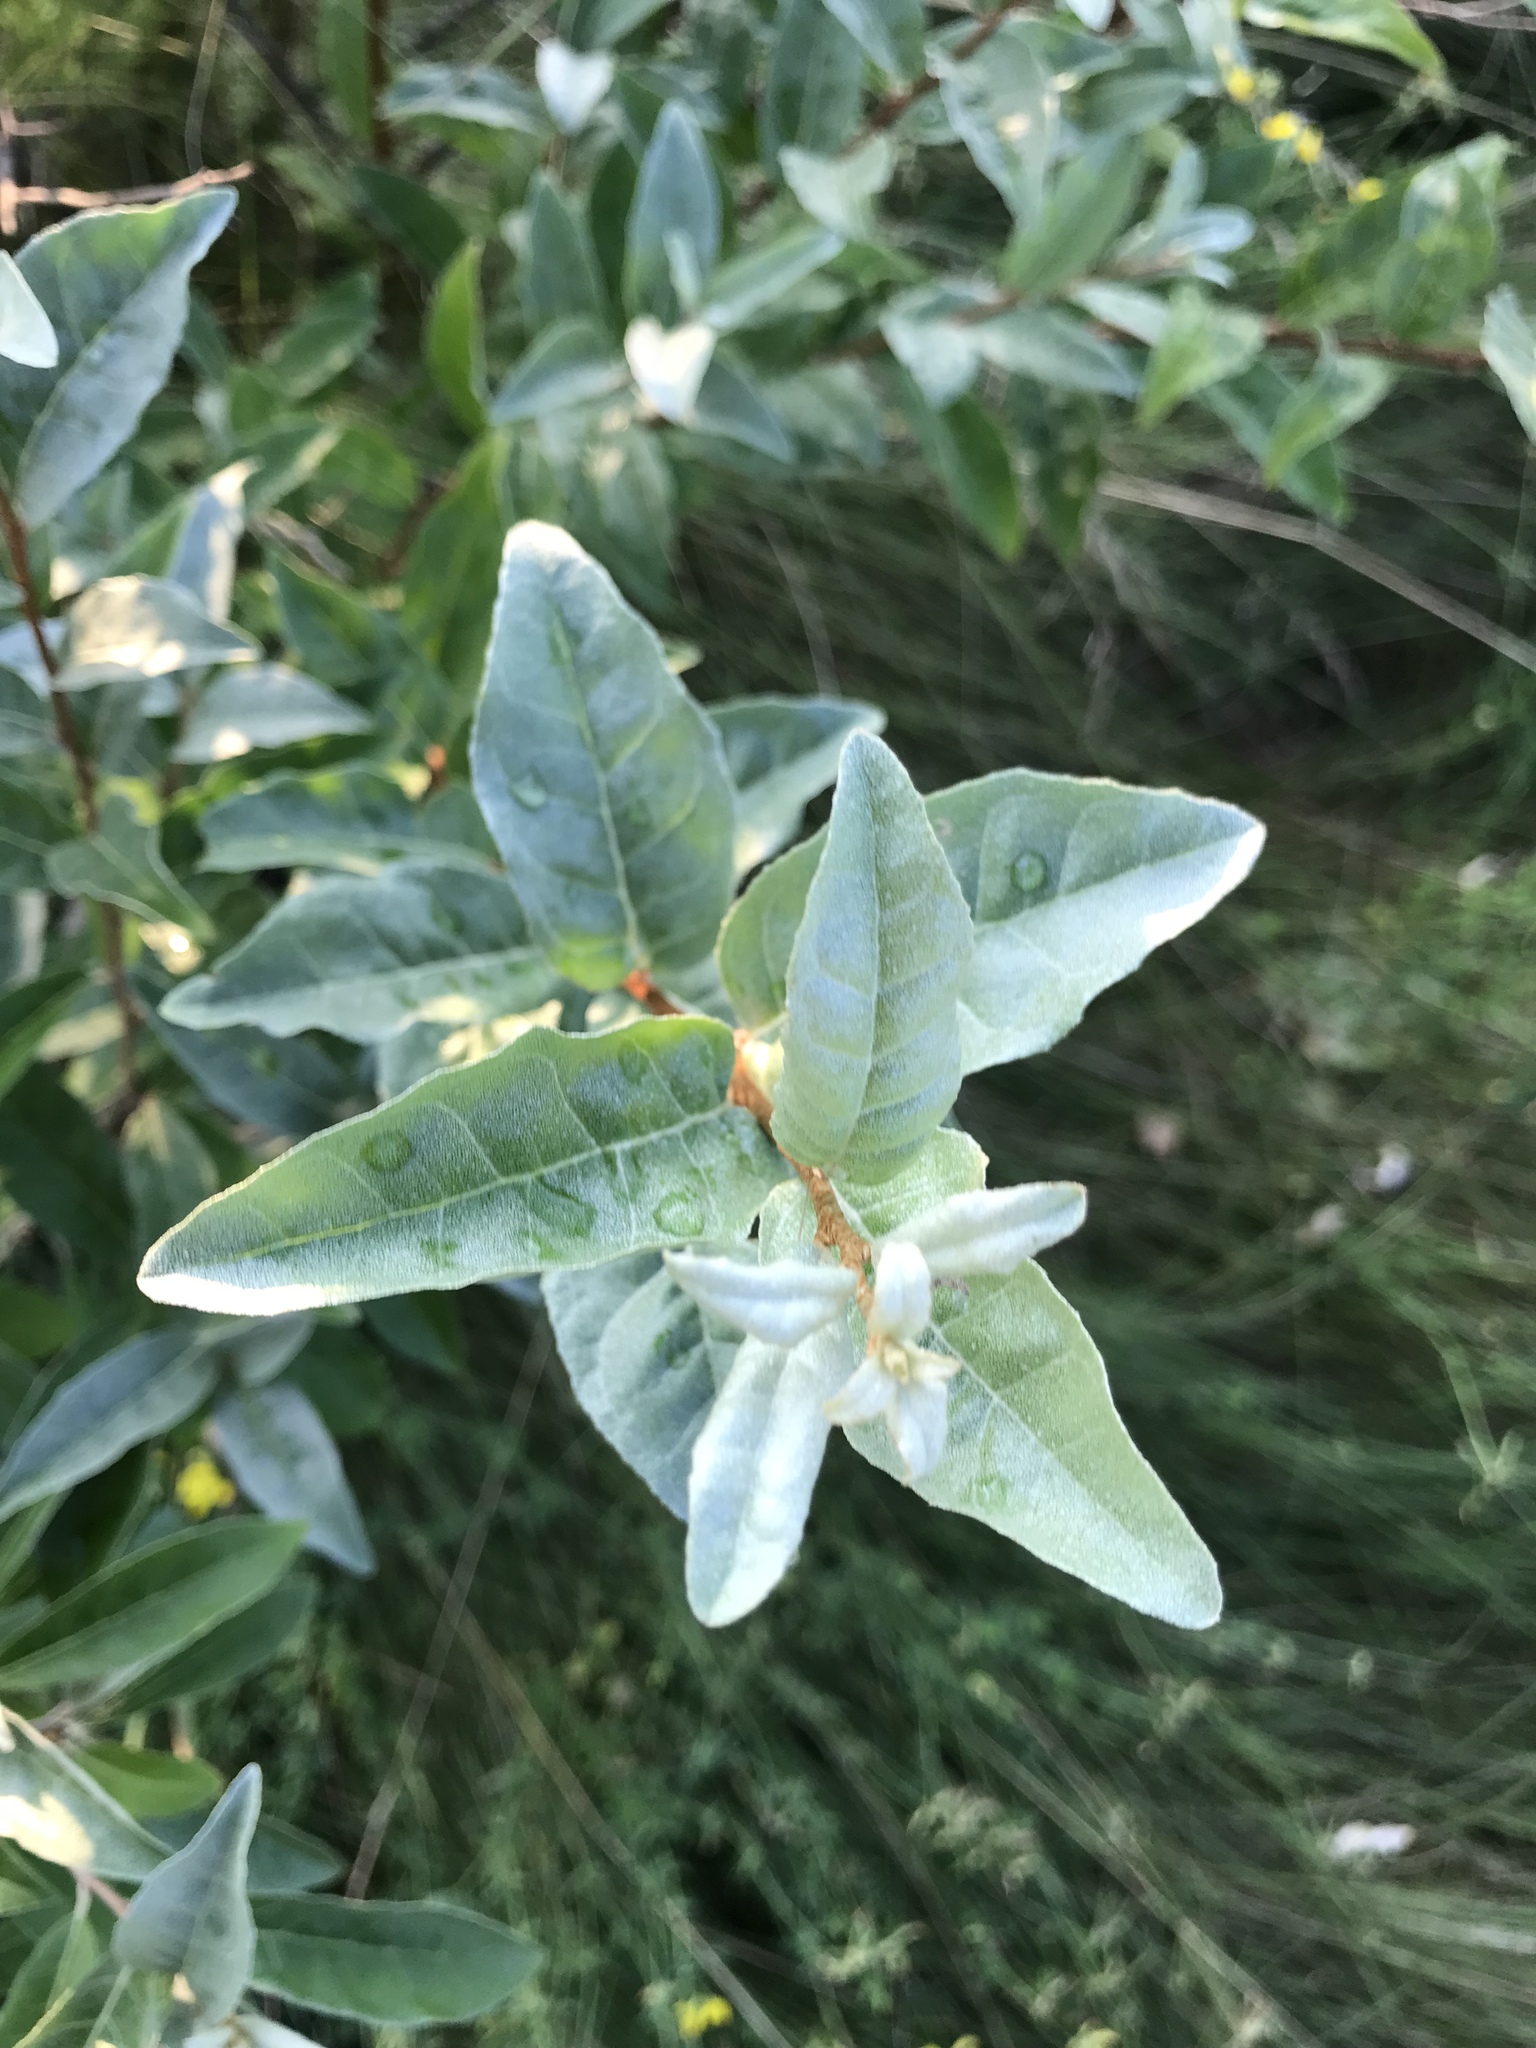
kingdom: Plantae
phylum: Tracheophyta
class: Magnoliopsida
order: Rosales
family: Elaeagnaceae
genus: Elaeagnus
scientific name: Elaeagnus umbellata
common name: Autumn olive
